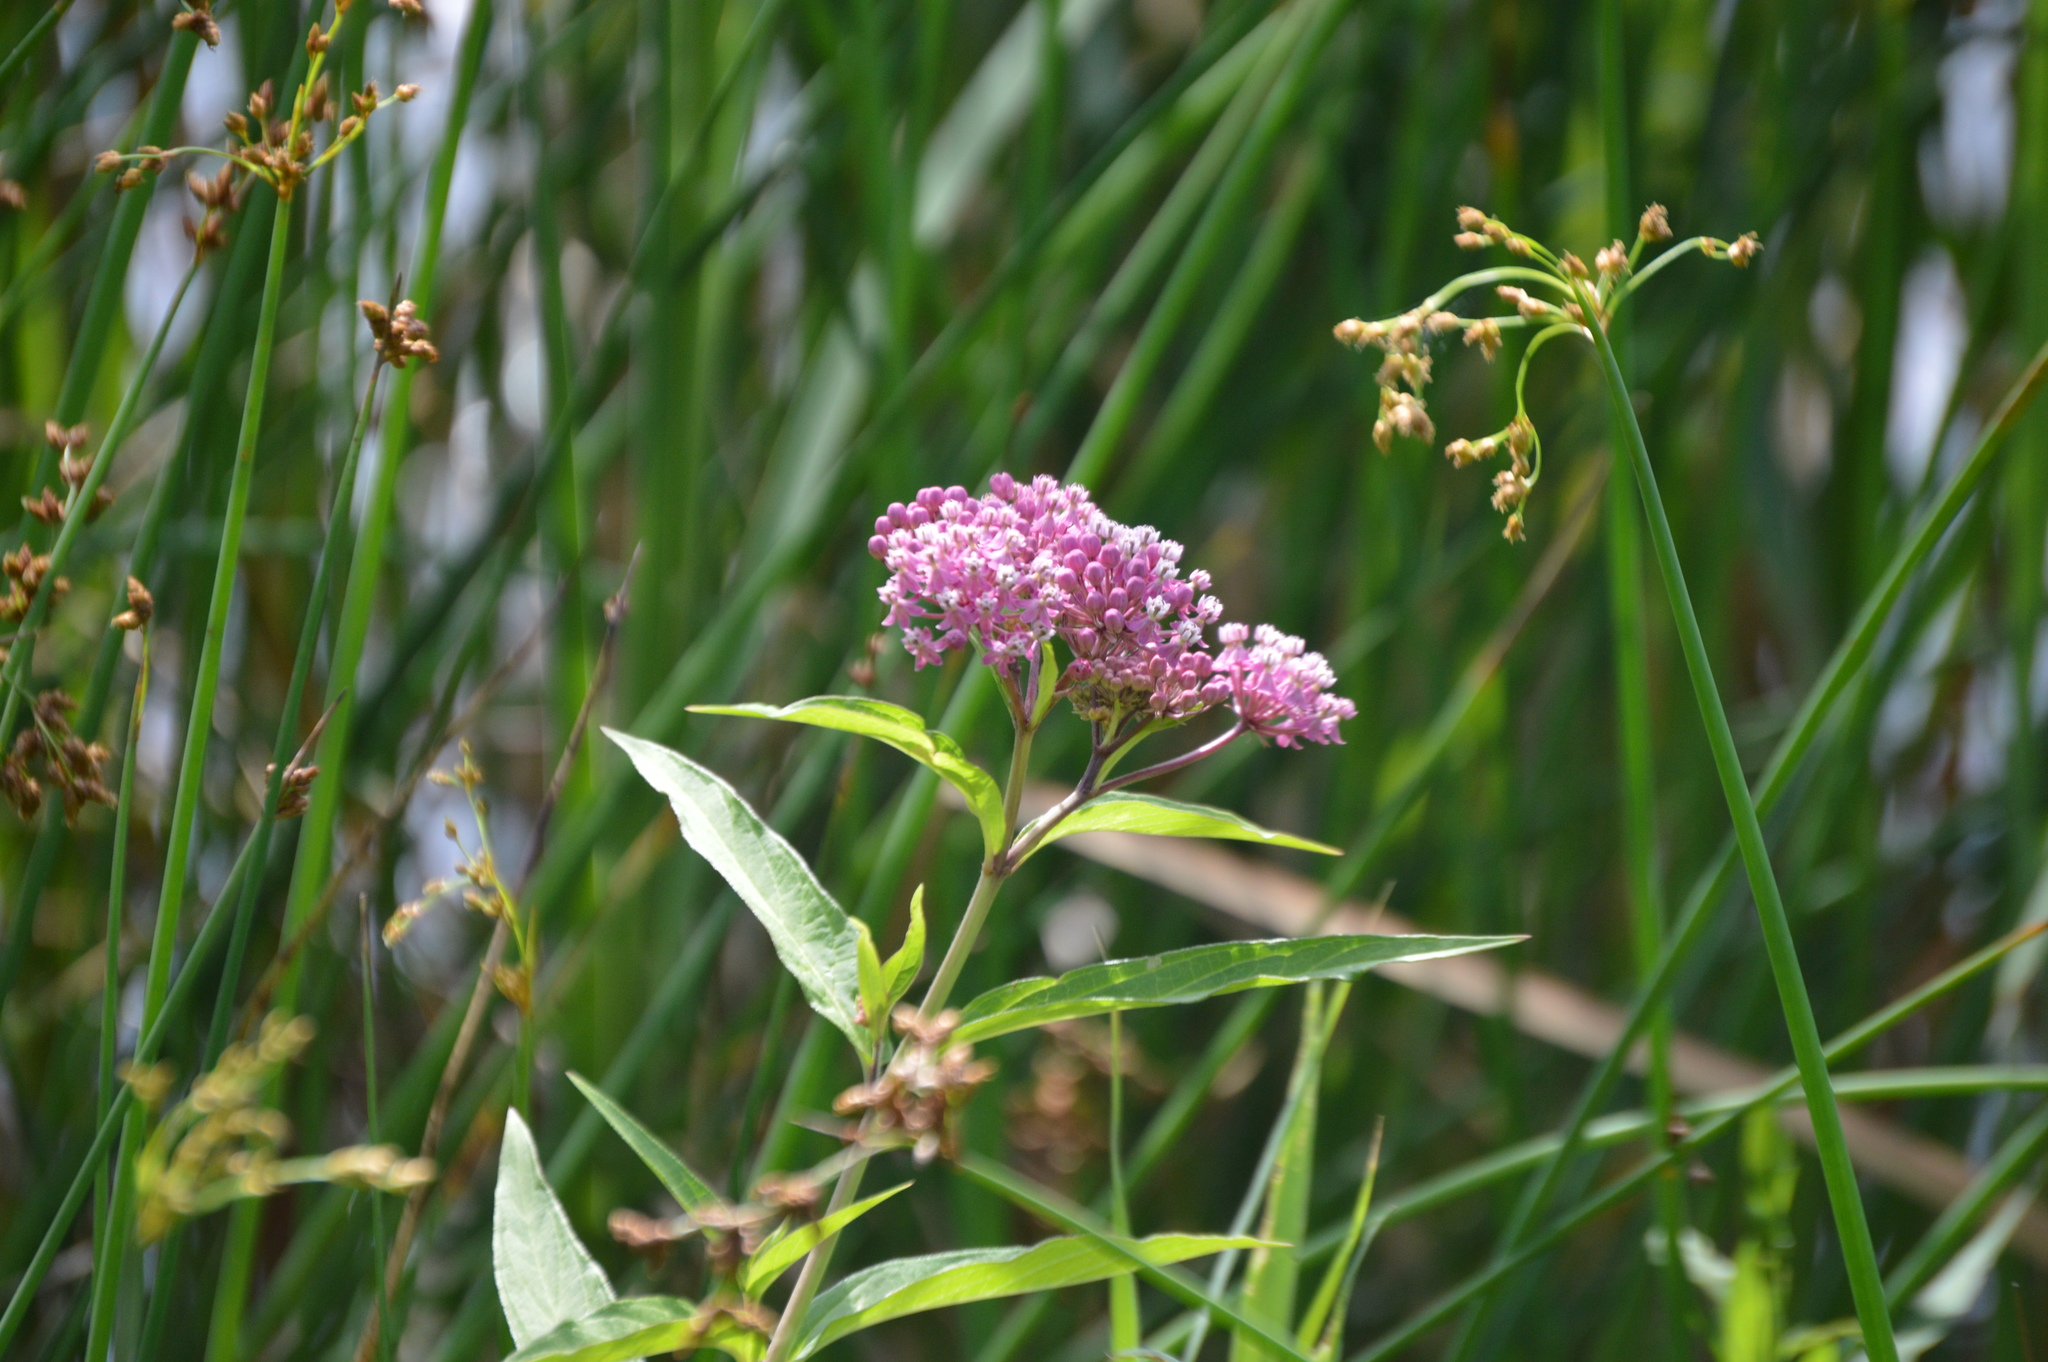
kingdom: Plantae
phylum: Tracheophyta
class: Magnoliopsida
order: Gentianales
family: Apocynaceae
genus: Asclepias
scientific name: Asclepias incarnata
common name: Swamp milkweed
